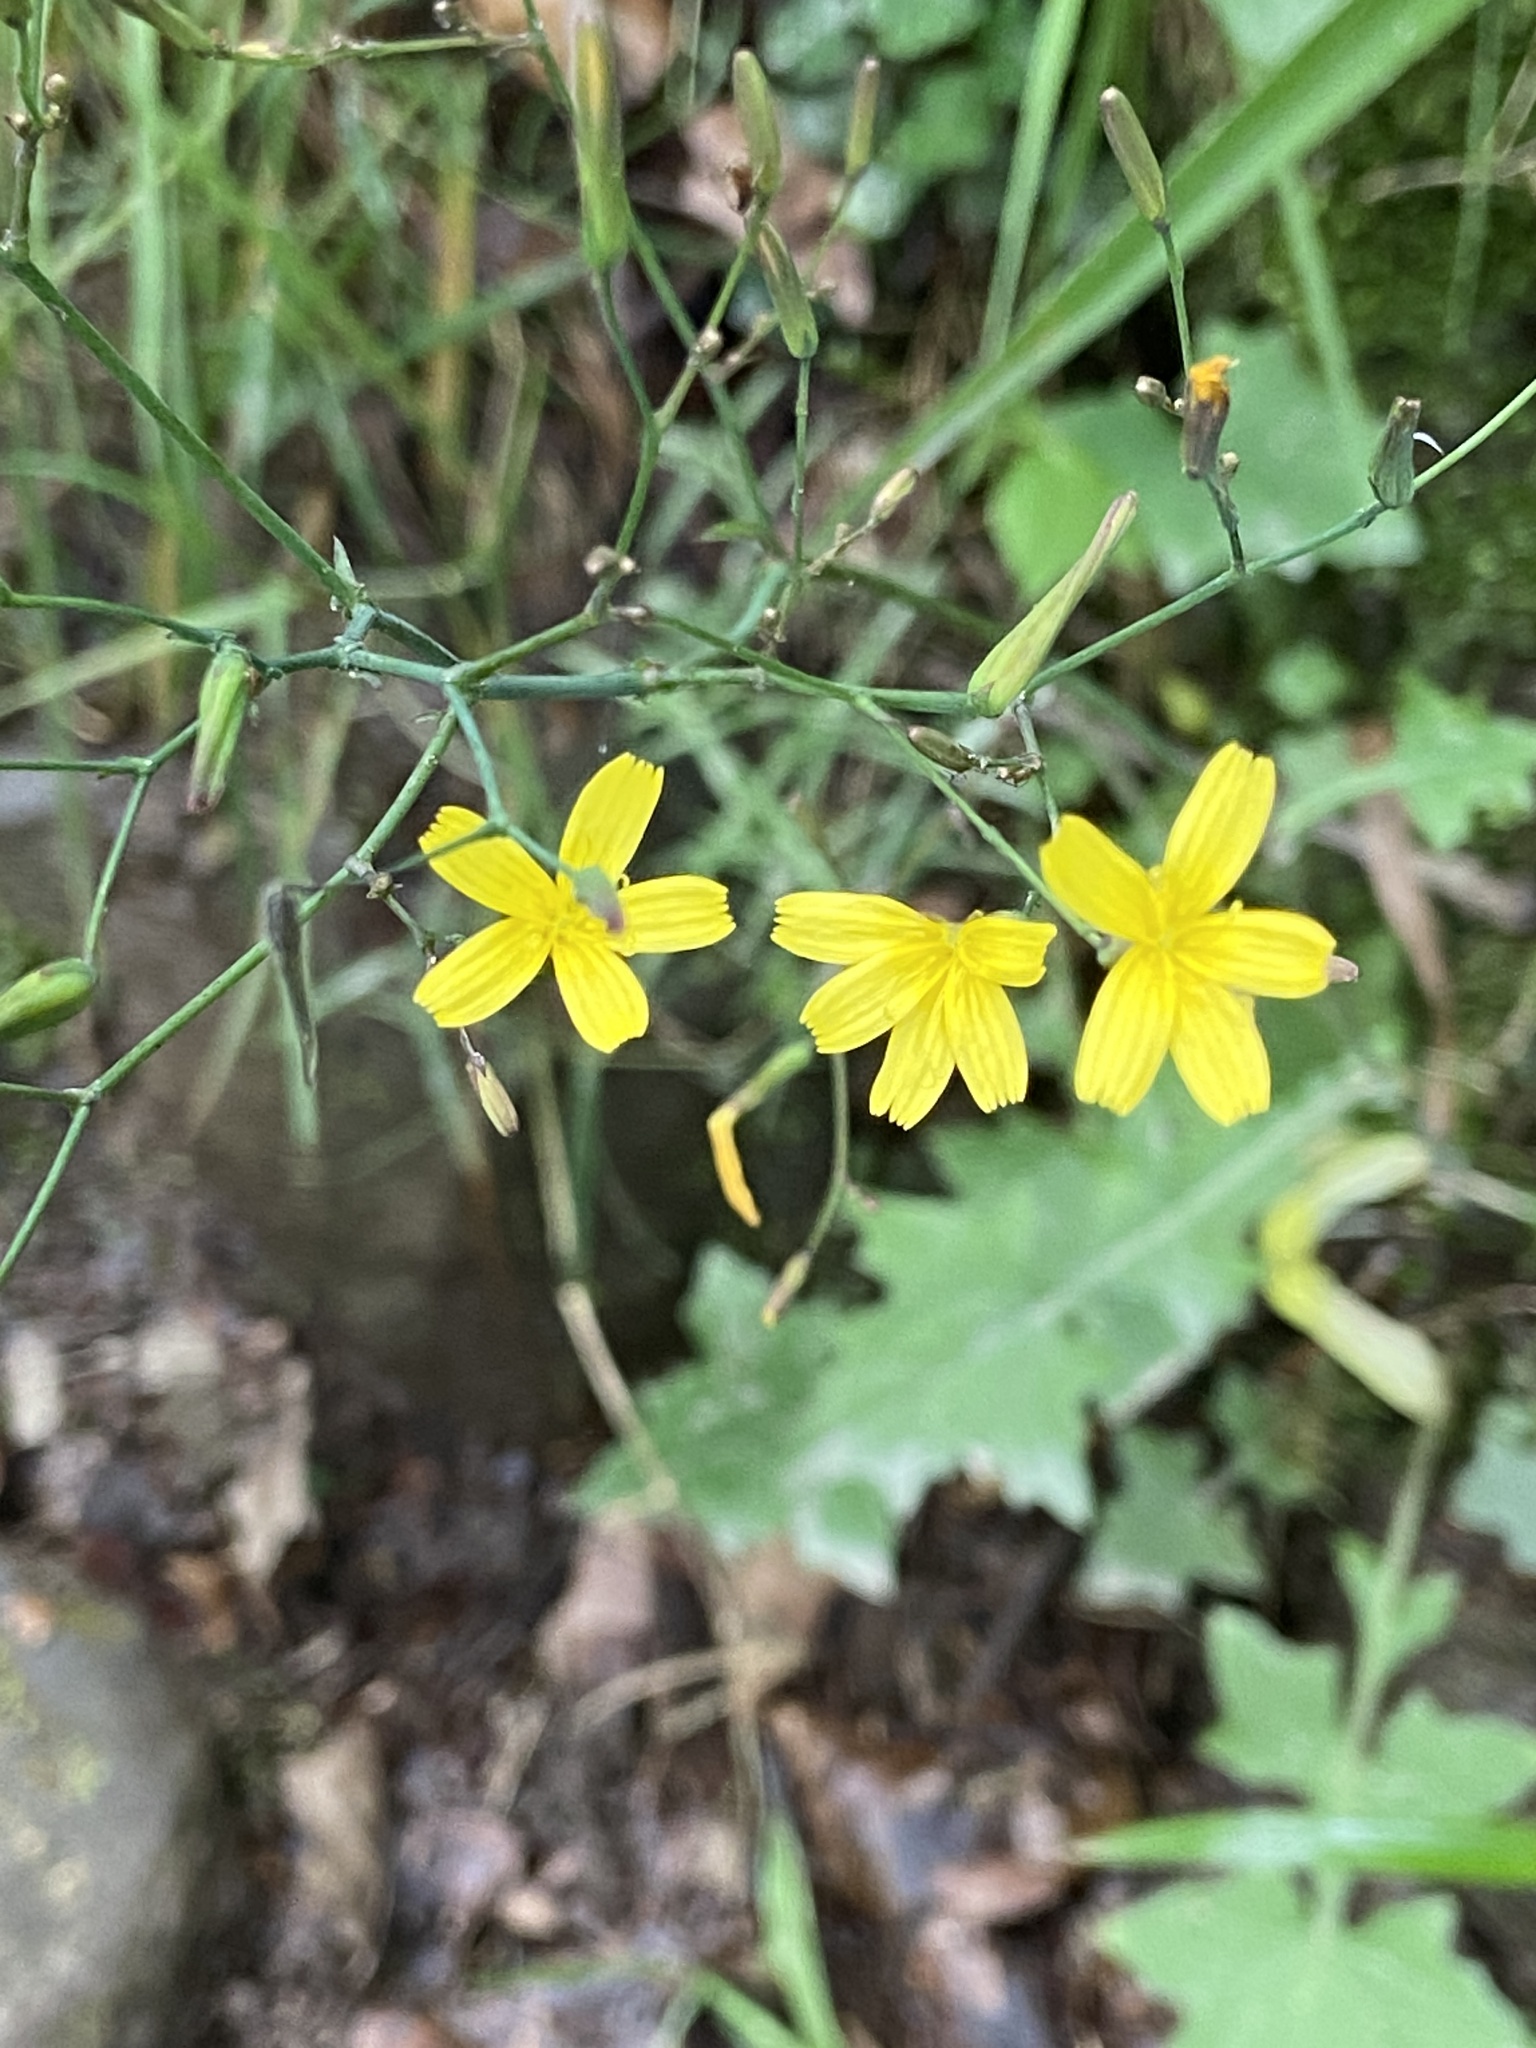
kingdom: Plantae
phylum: Tracheophyta
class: Magnoliopsida
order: Asterales
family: Asteraceae
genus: Mycelis
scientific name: Mycelis muralis
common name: Wall lettuce
